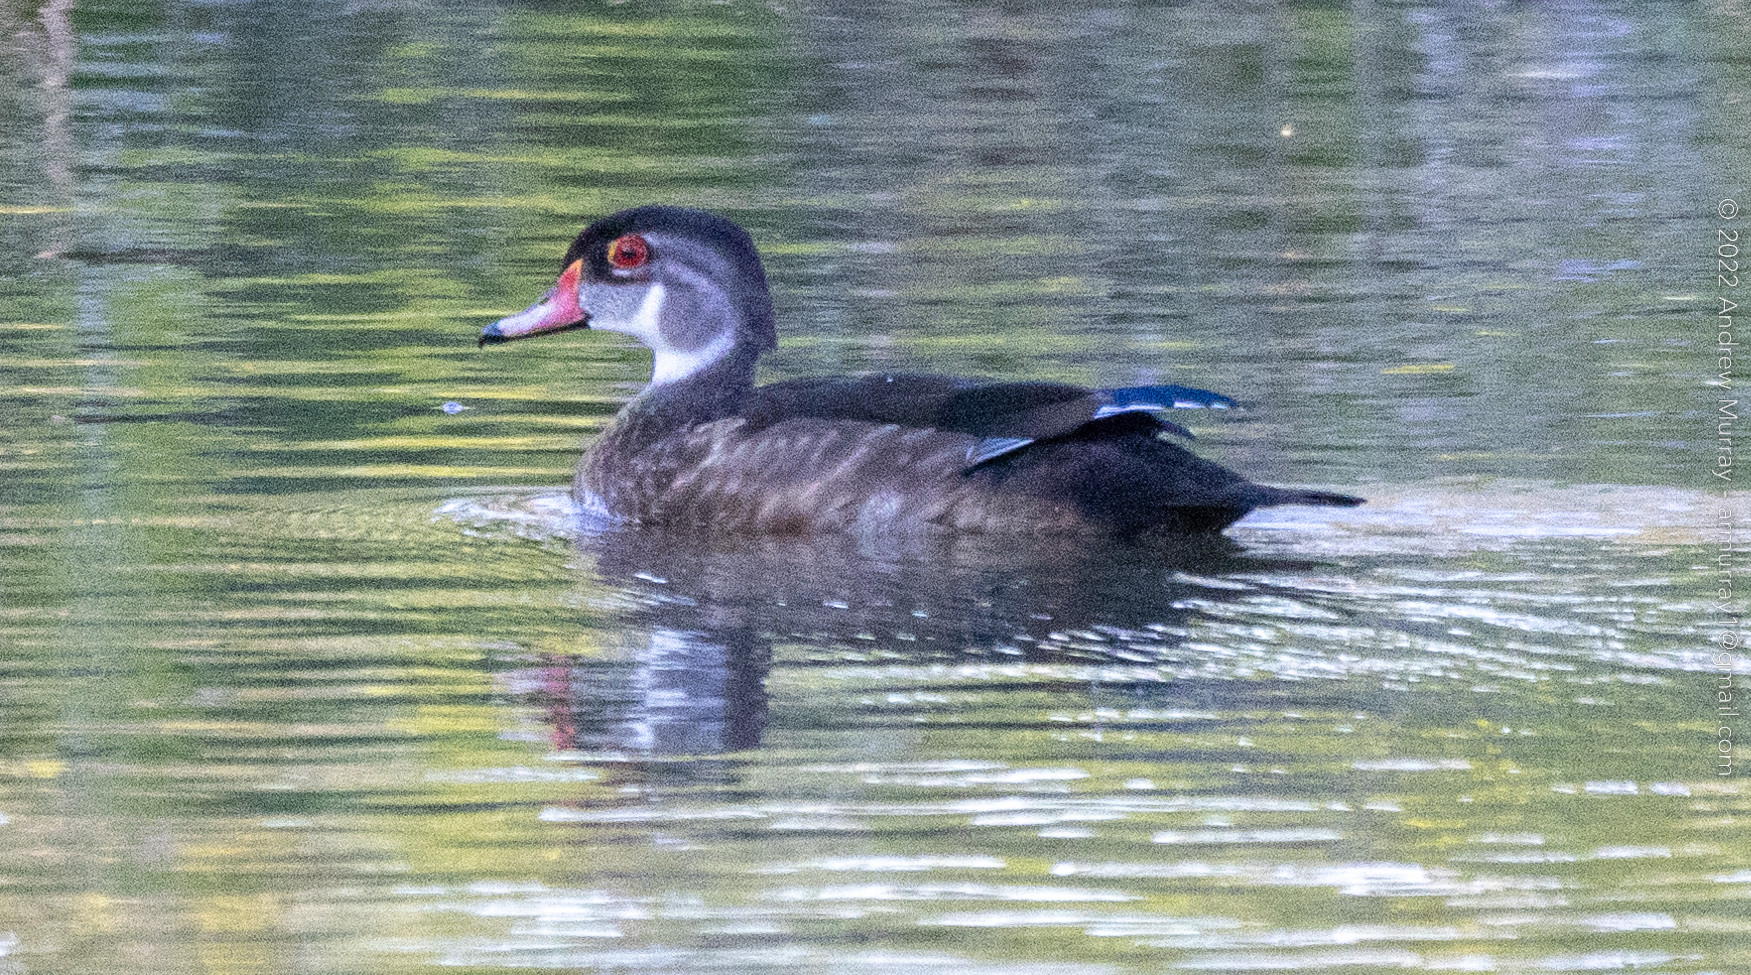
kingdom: Animalia
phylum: Chordata
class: Aves
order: Anseriformes
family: Anatidae
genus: Aix
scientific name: Aix sponsa
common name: Wood duck
